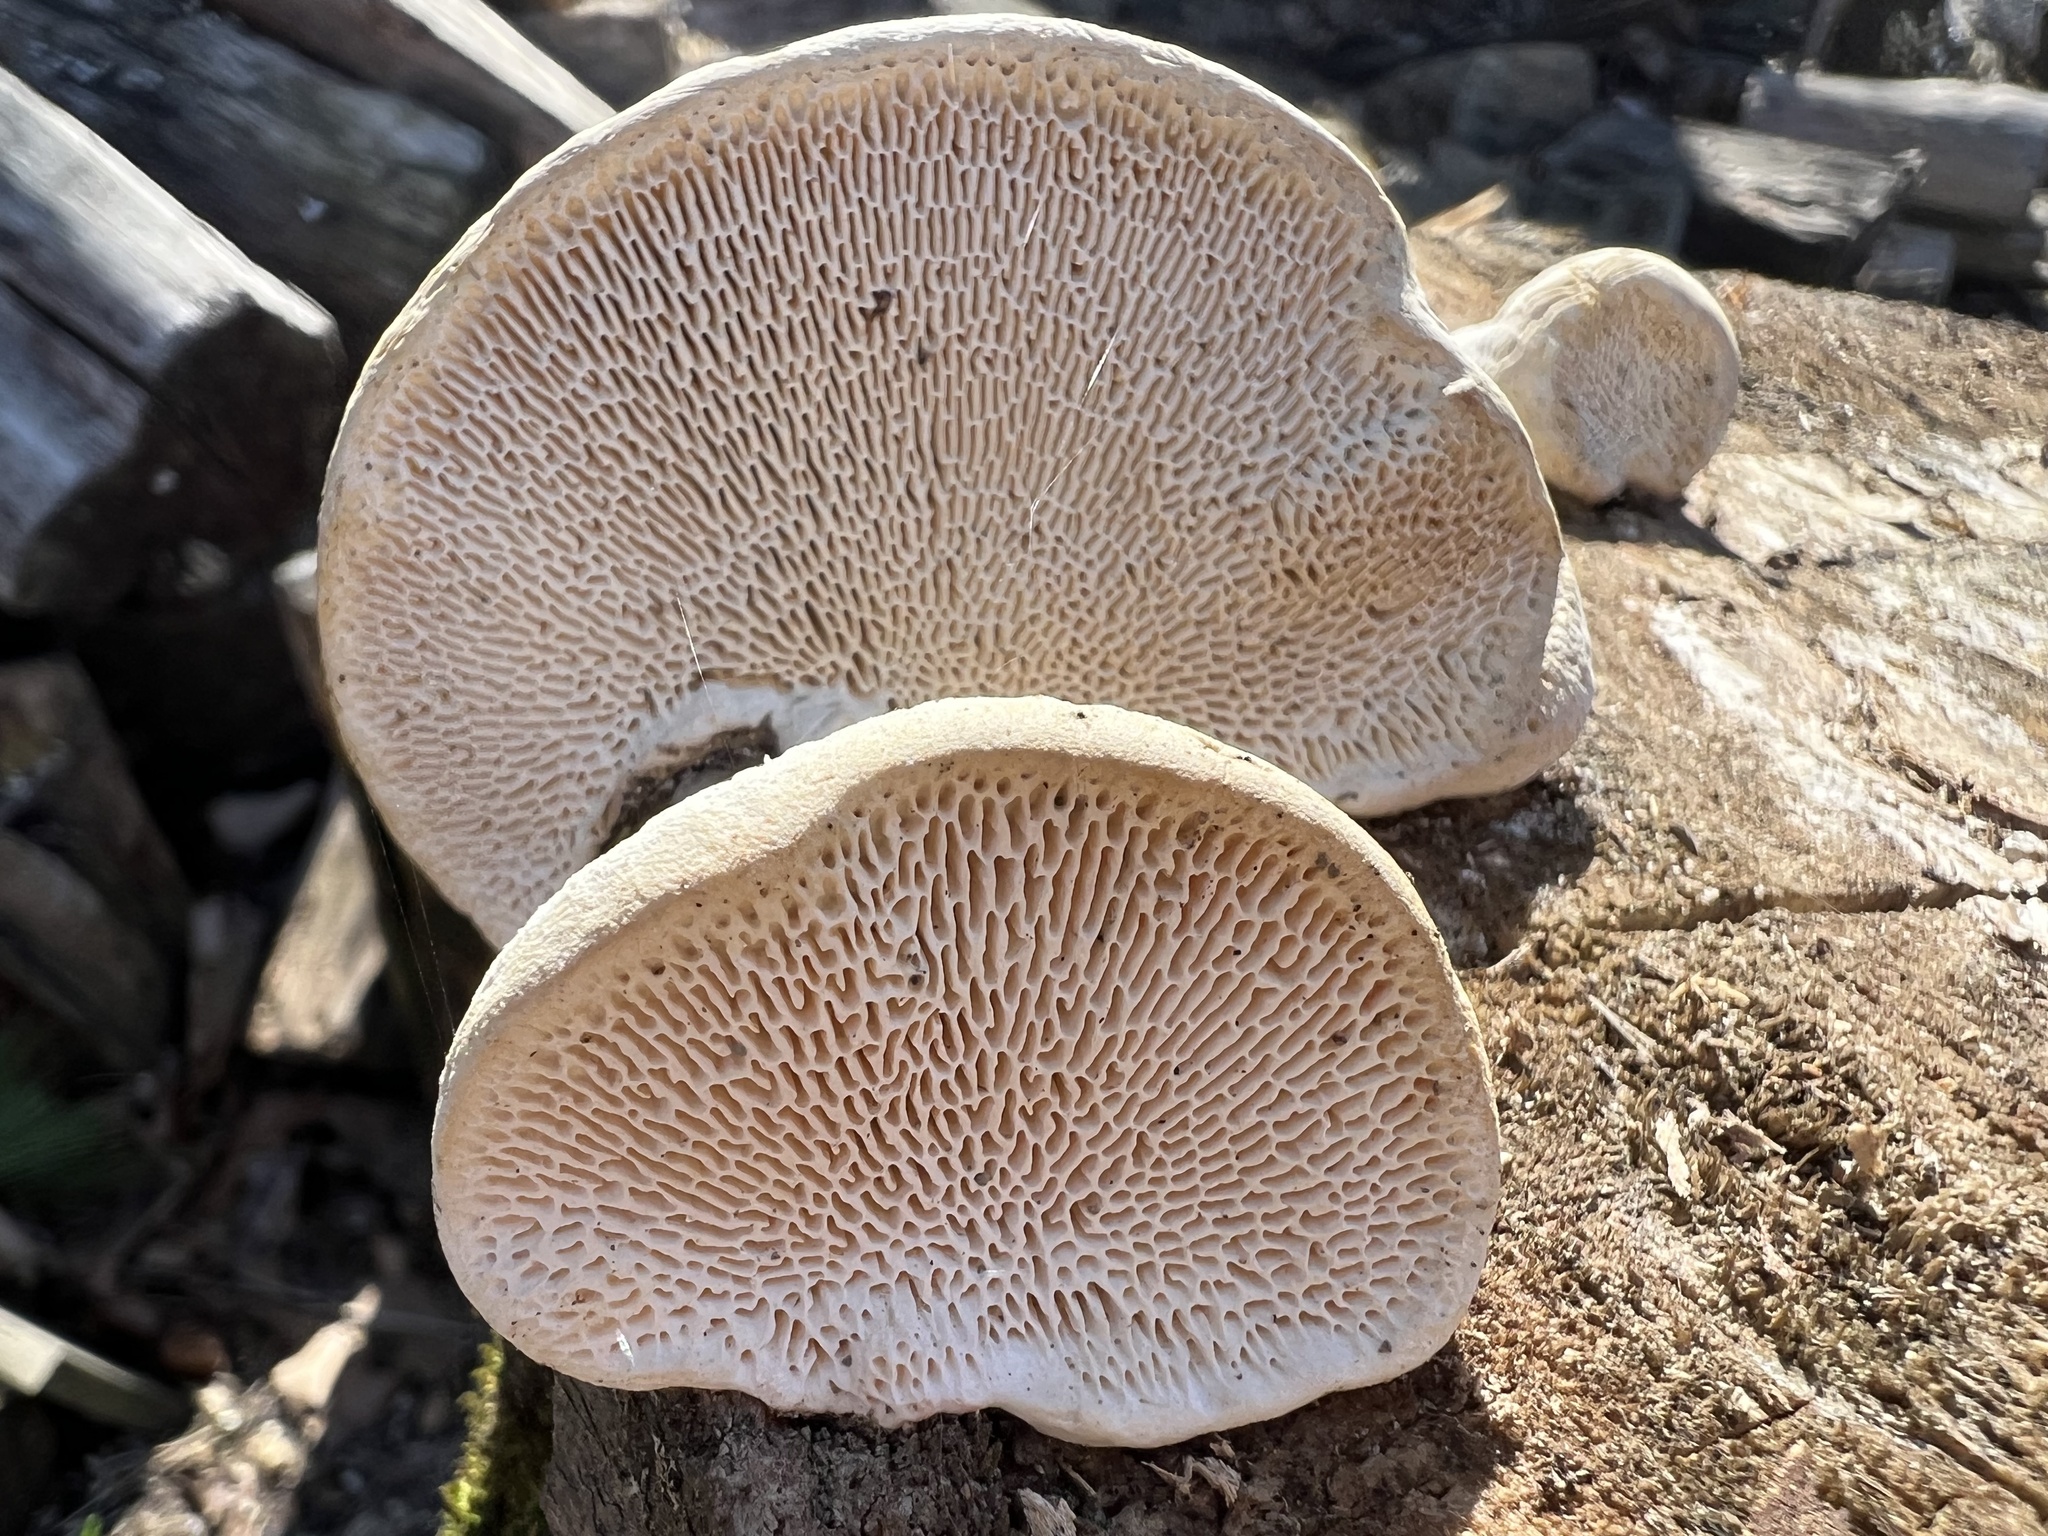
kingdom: Fungi
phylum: Basidiomycota
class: Agaricomycetes
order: Polyporales
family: Polyporaceae
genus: Trametes
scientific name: Trametes gibbosa
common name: Lumpy bracket
